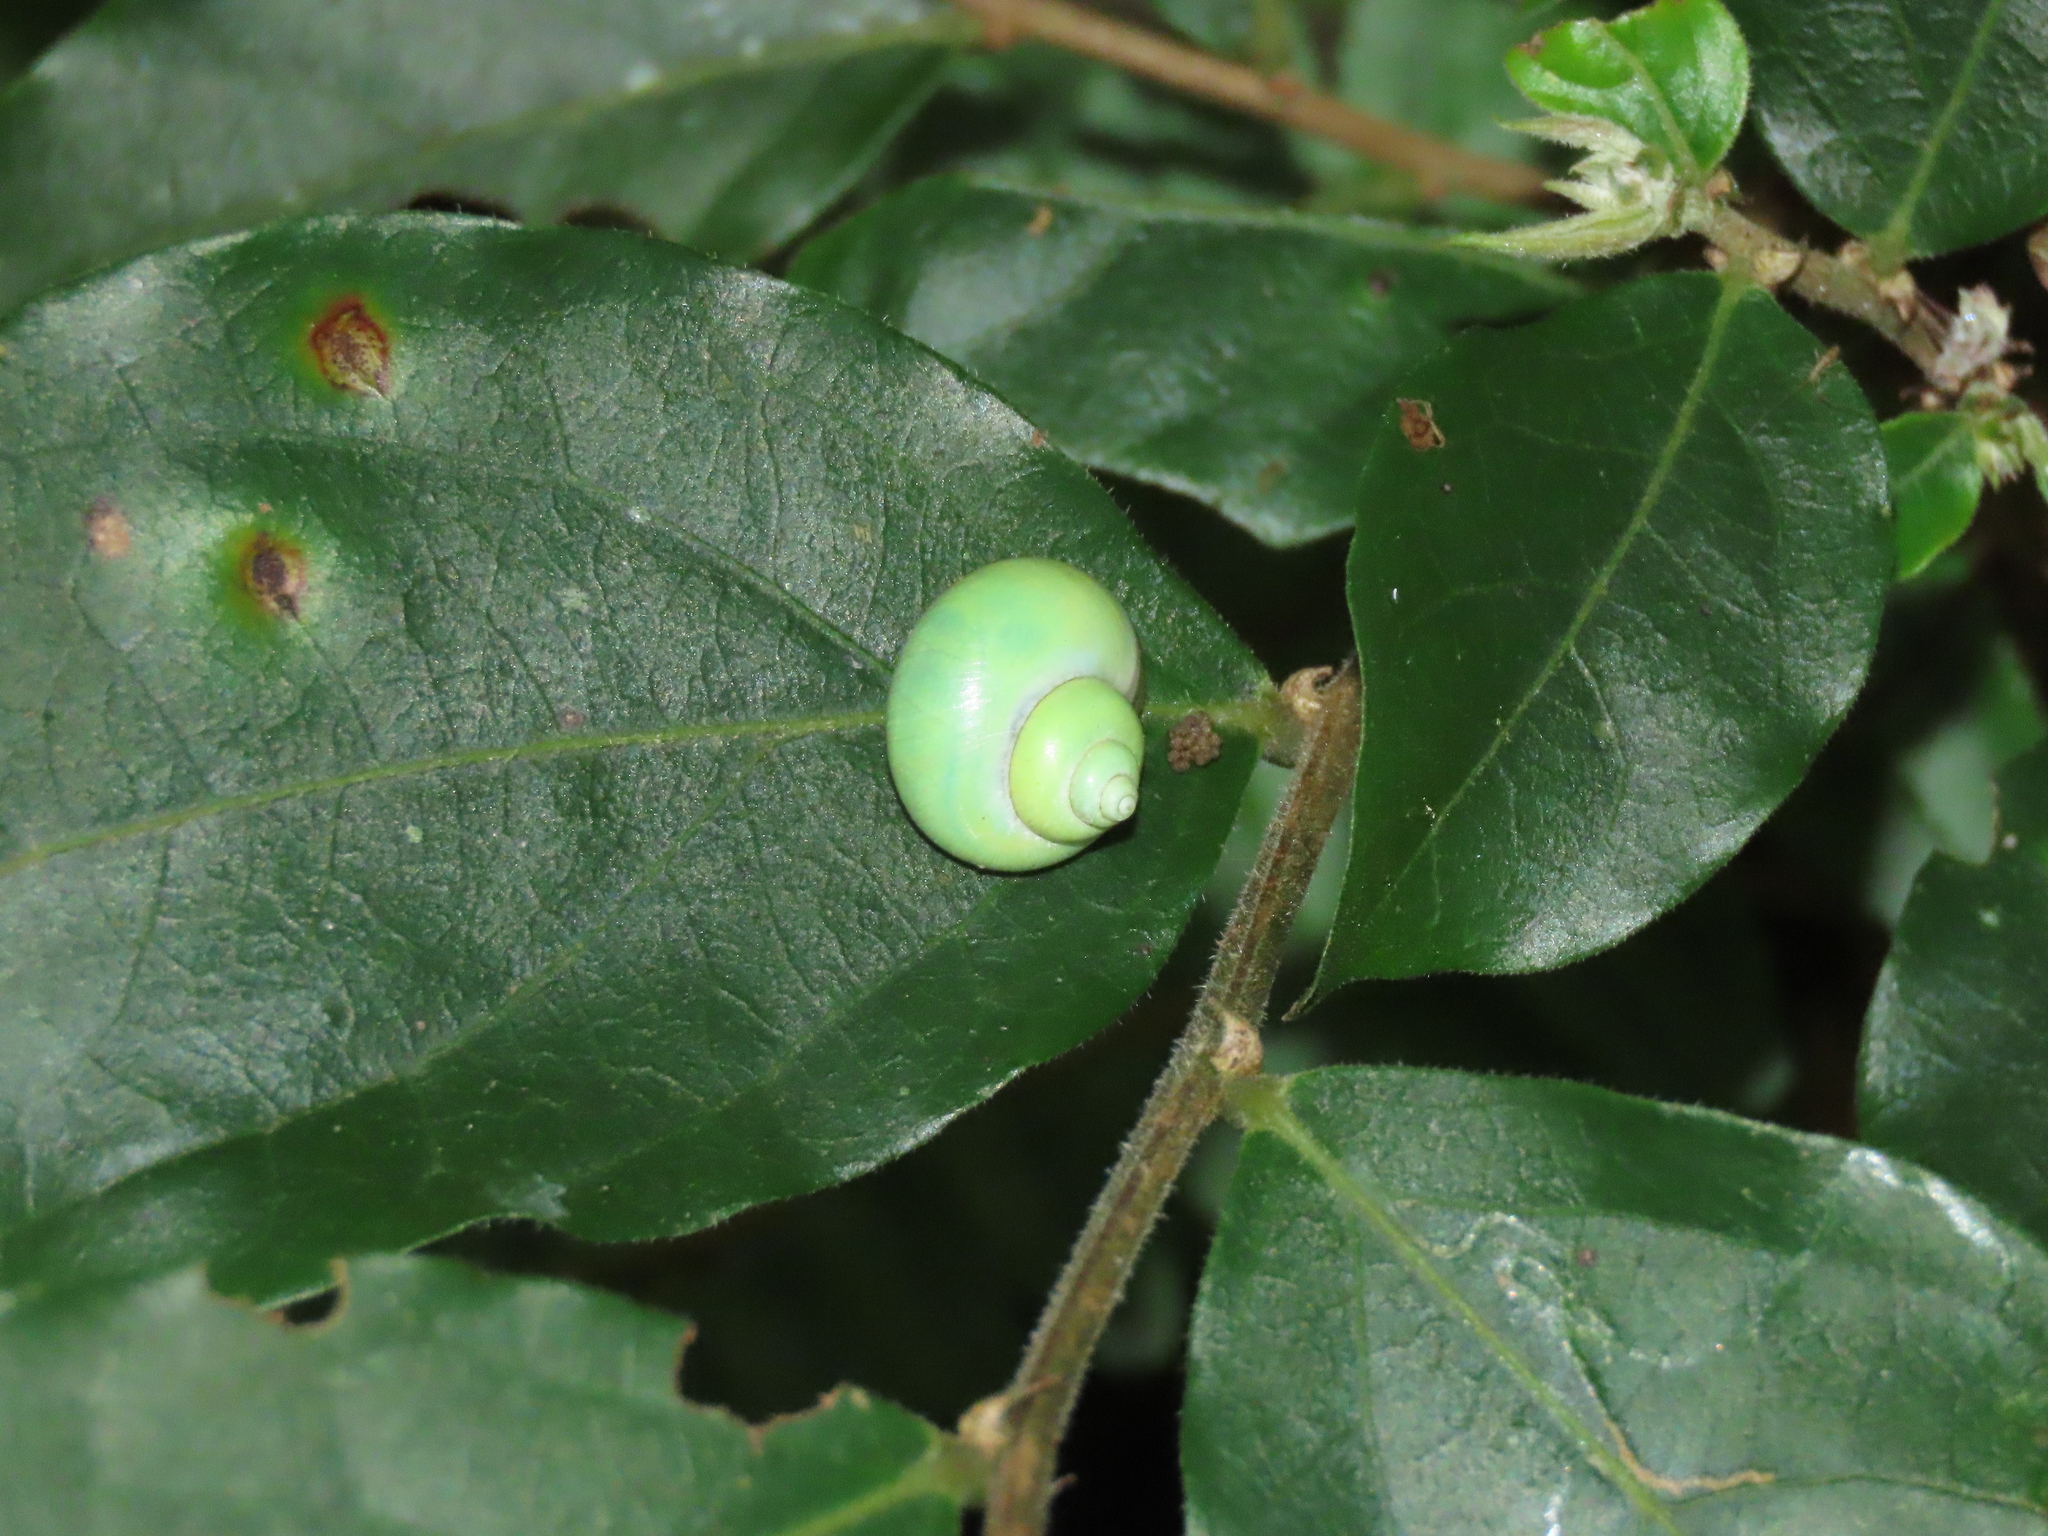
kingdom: Animalia
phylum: Mollusca
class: Gastropoda
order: Architaenioglossa
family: Cyclophoridae
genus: Leptopoma
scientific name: Leptopoma nitidum
